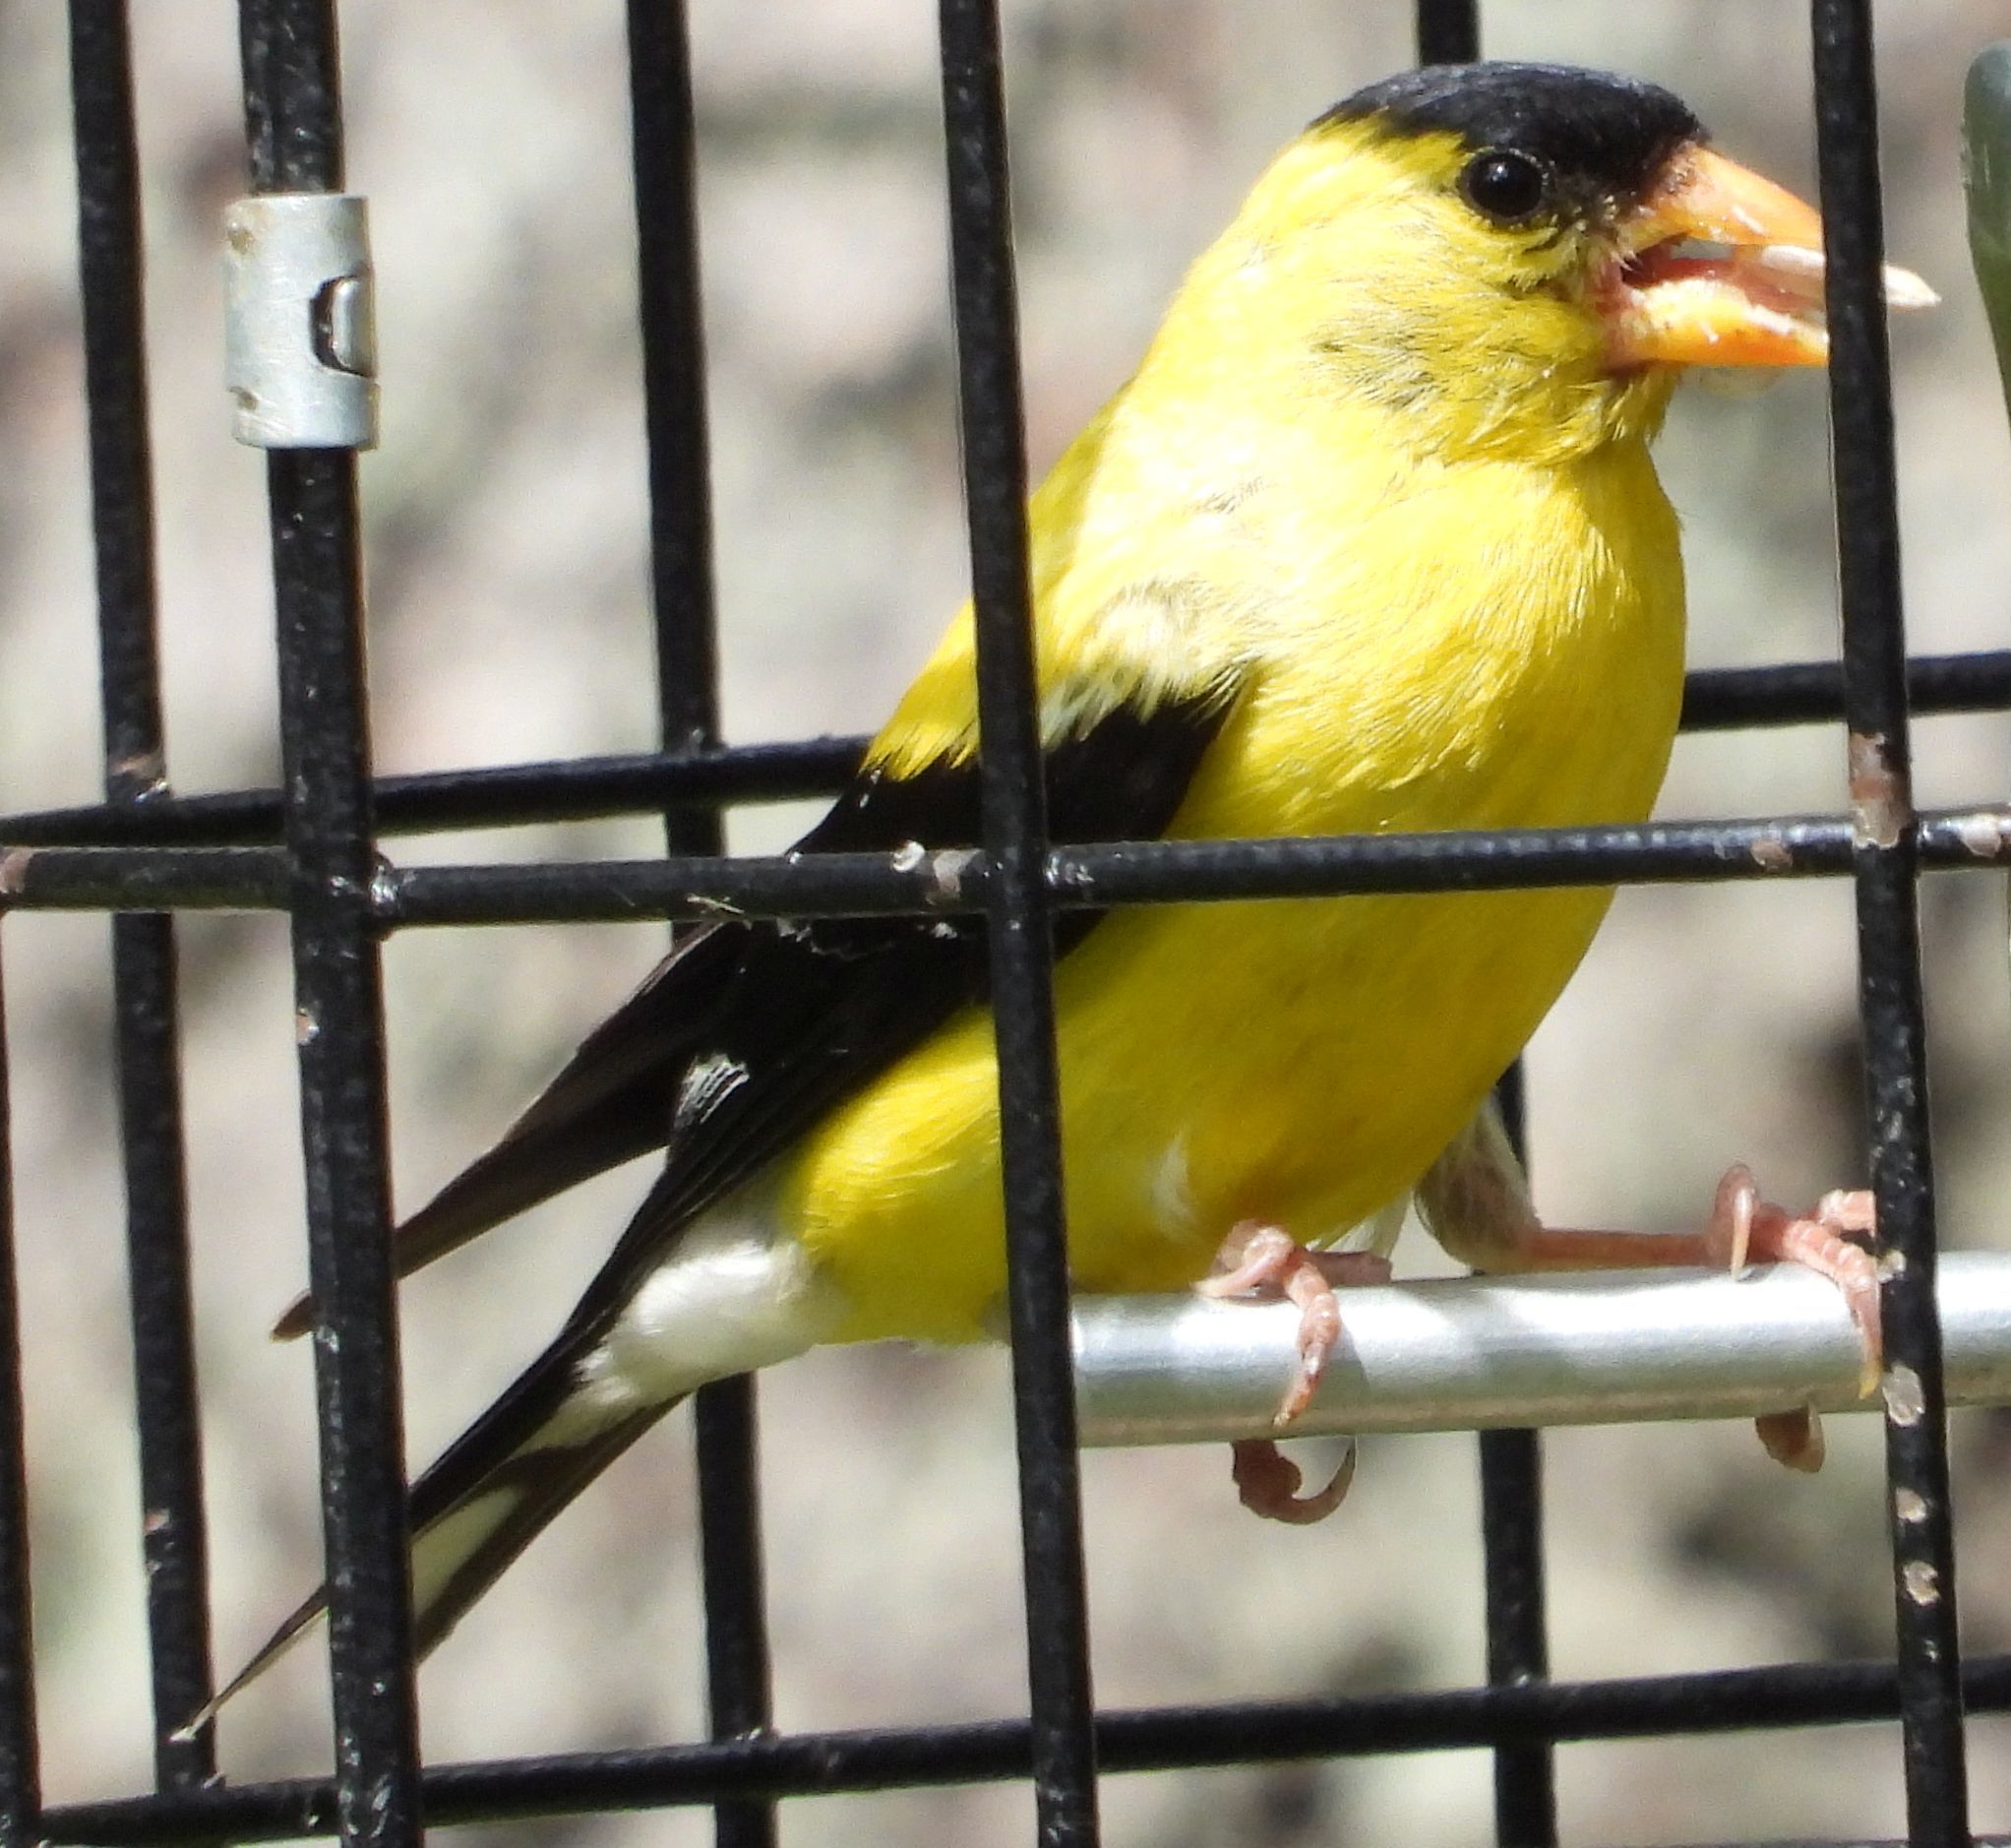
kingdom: Animalia
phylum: Chordata
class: Aves
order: Passeriformes
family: Fringillidae
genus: Spinus
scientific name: Spinus tristis
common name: American goldfinch
